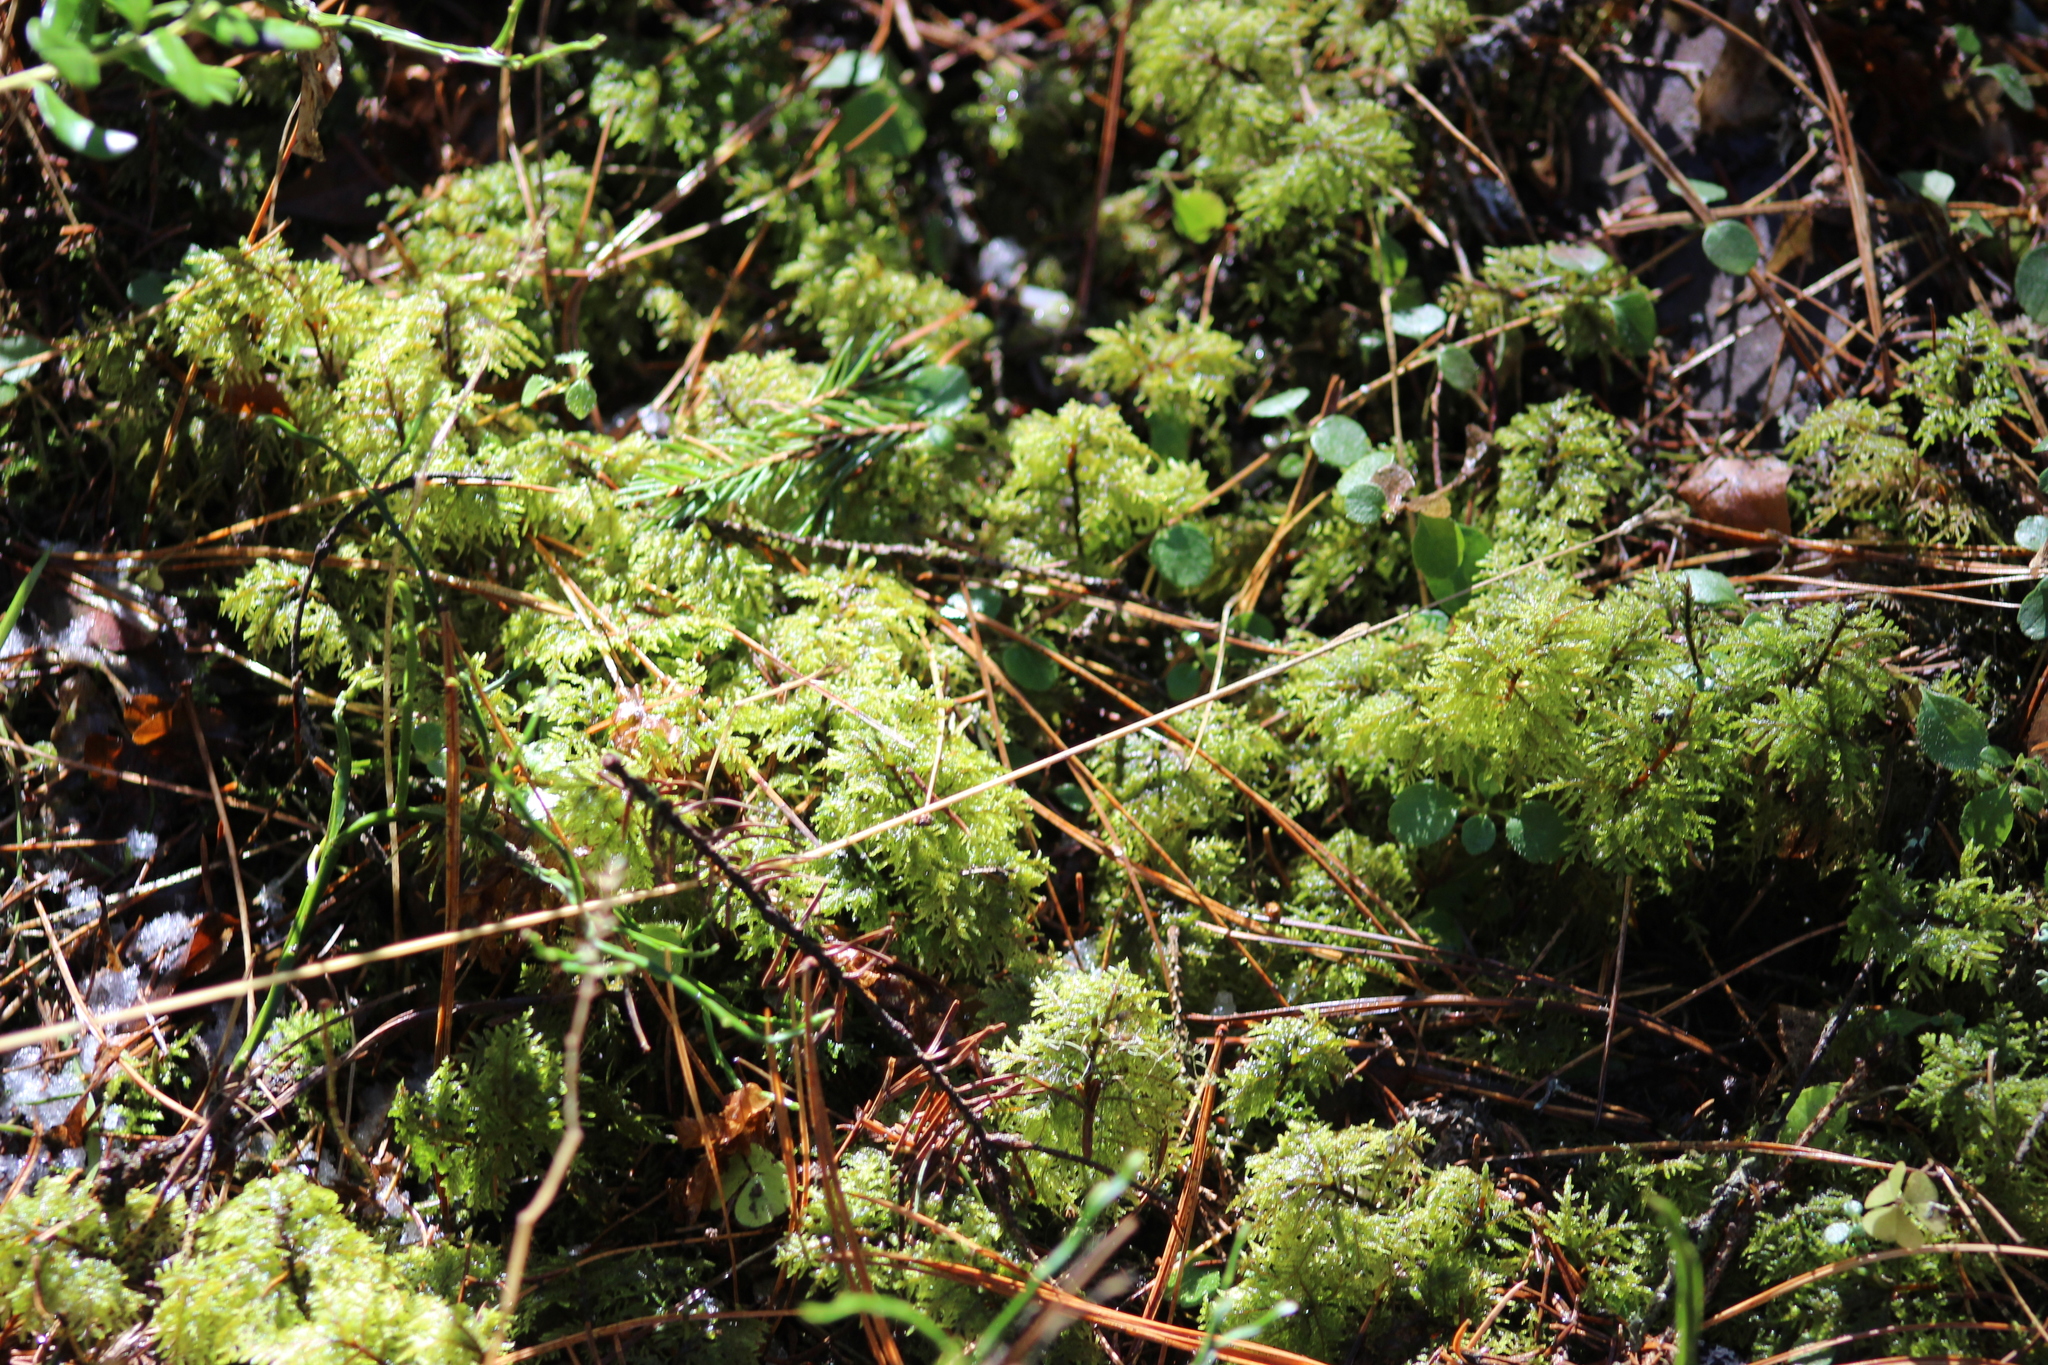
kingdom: Plantae
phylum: Bryophyta
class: Bryopsida
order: Hypnales
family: Hylocomiaceae
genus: Hylocomium
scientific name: Hylocomium splendens
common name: Stairstep moss
